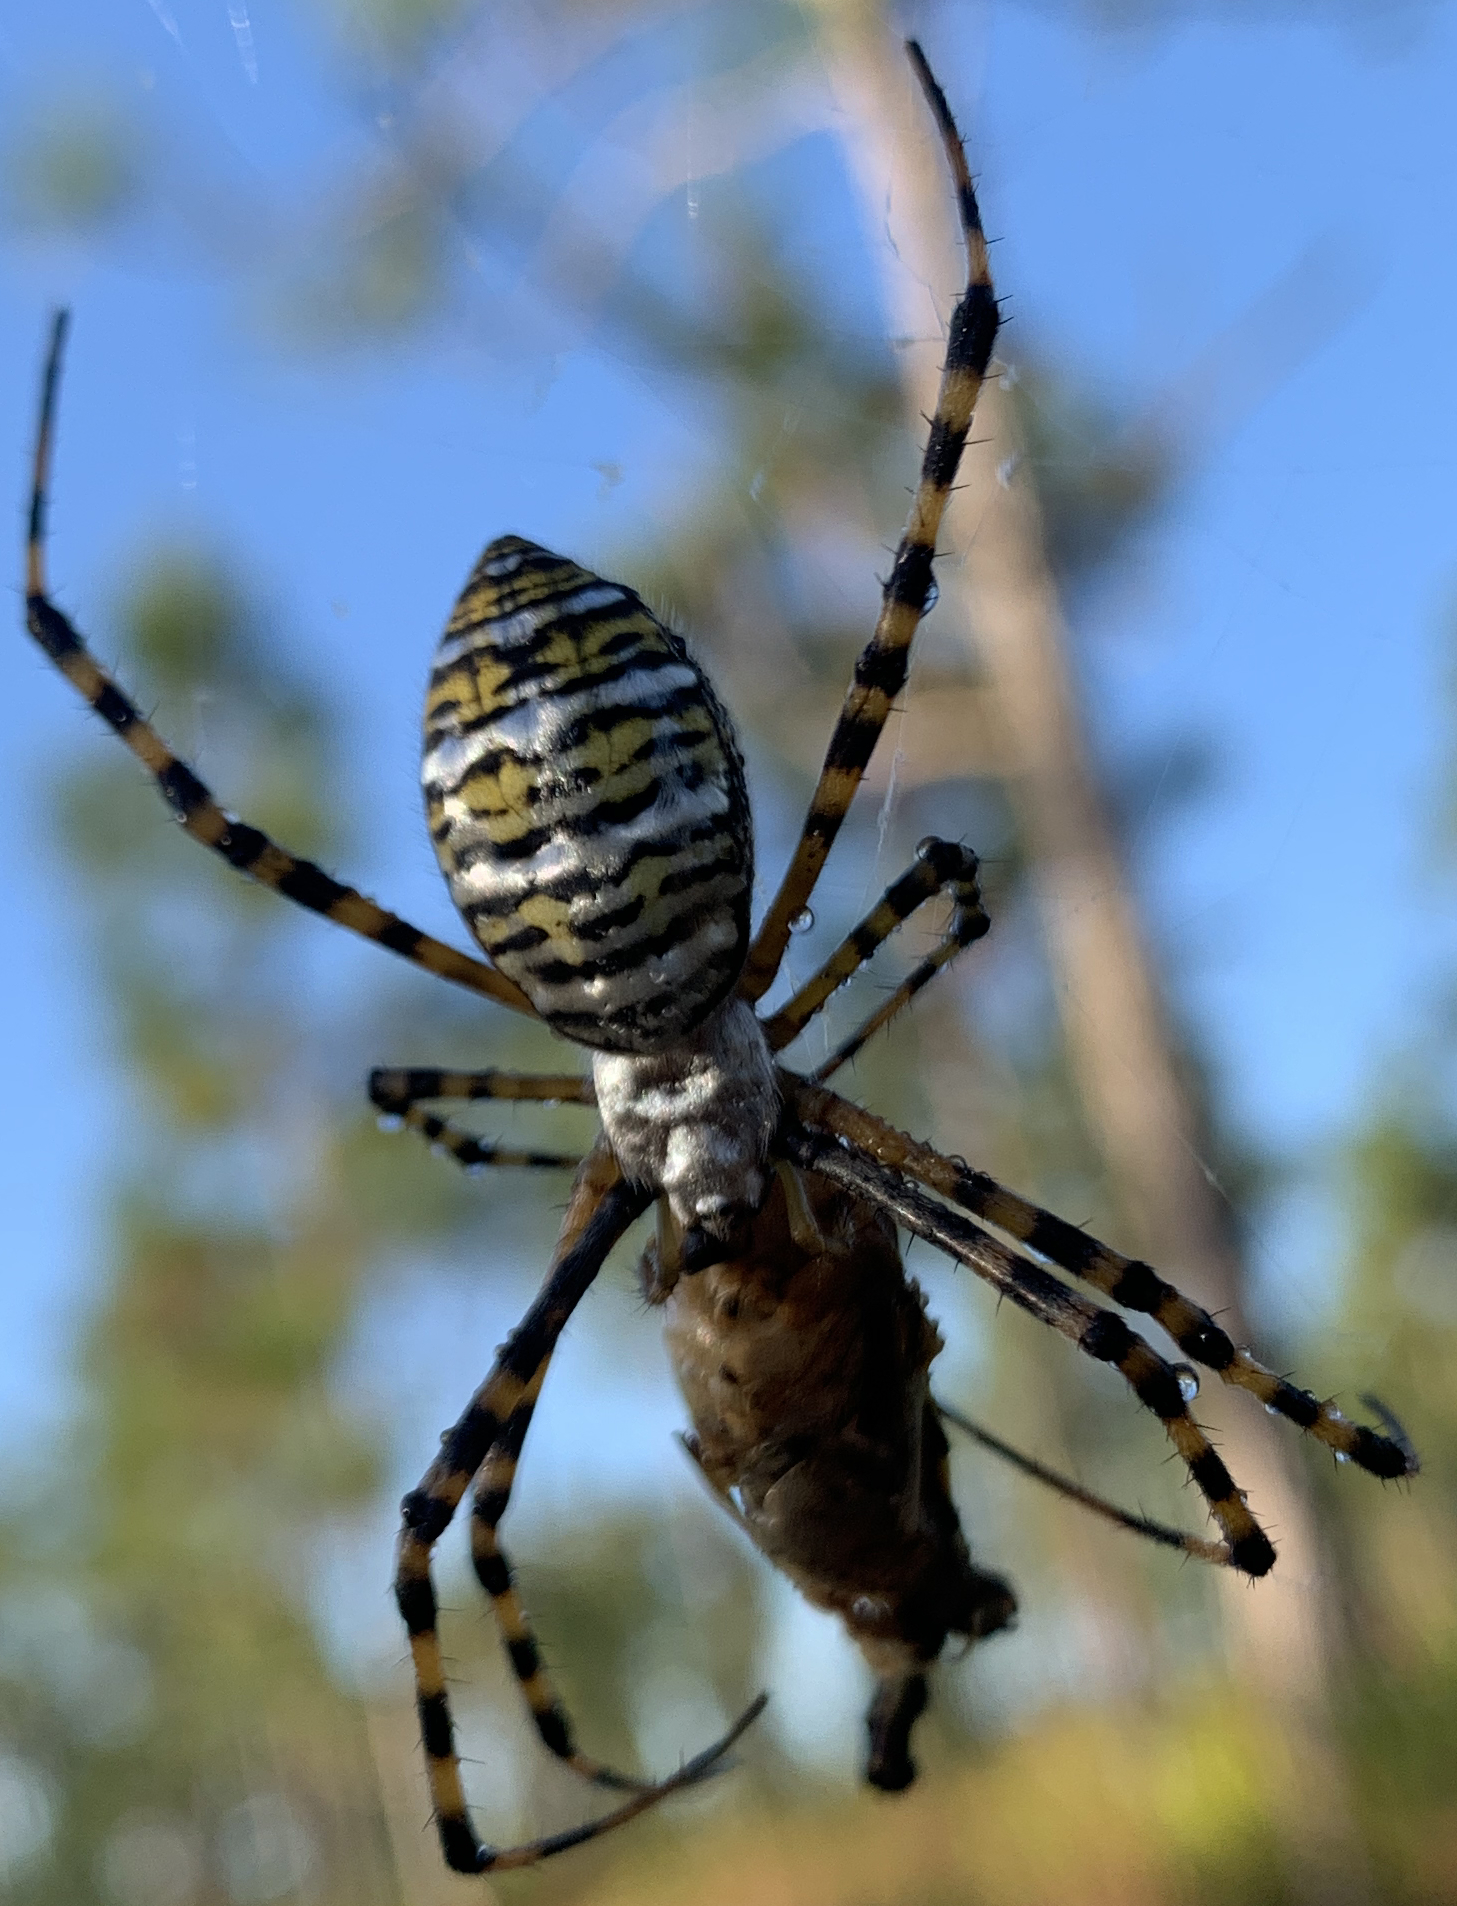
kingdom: Animalia
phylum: Arthropoda
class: Arachnida
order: Araneae
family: Araneidae
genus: Argiope
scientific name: Argiope trifasciata
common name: Banded garden spider
